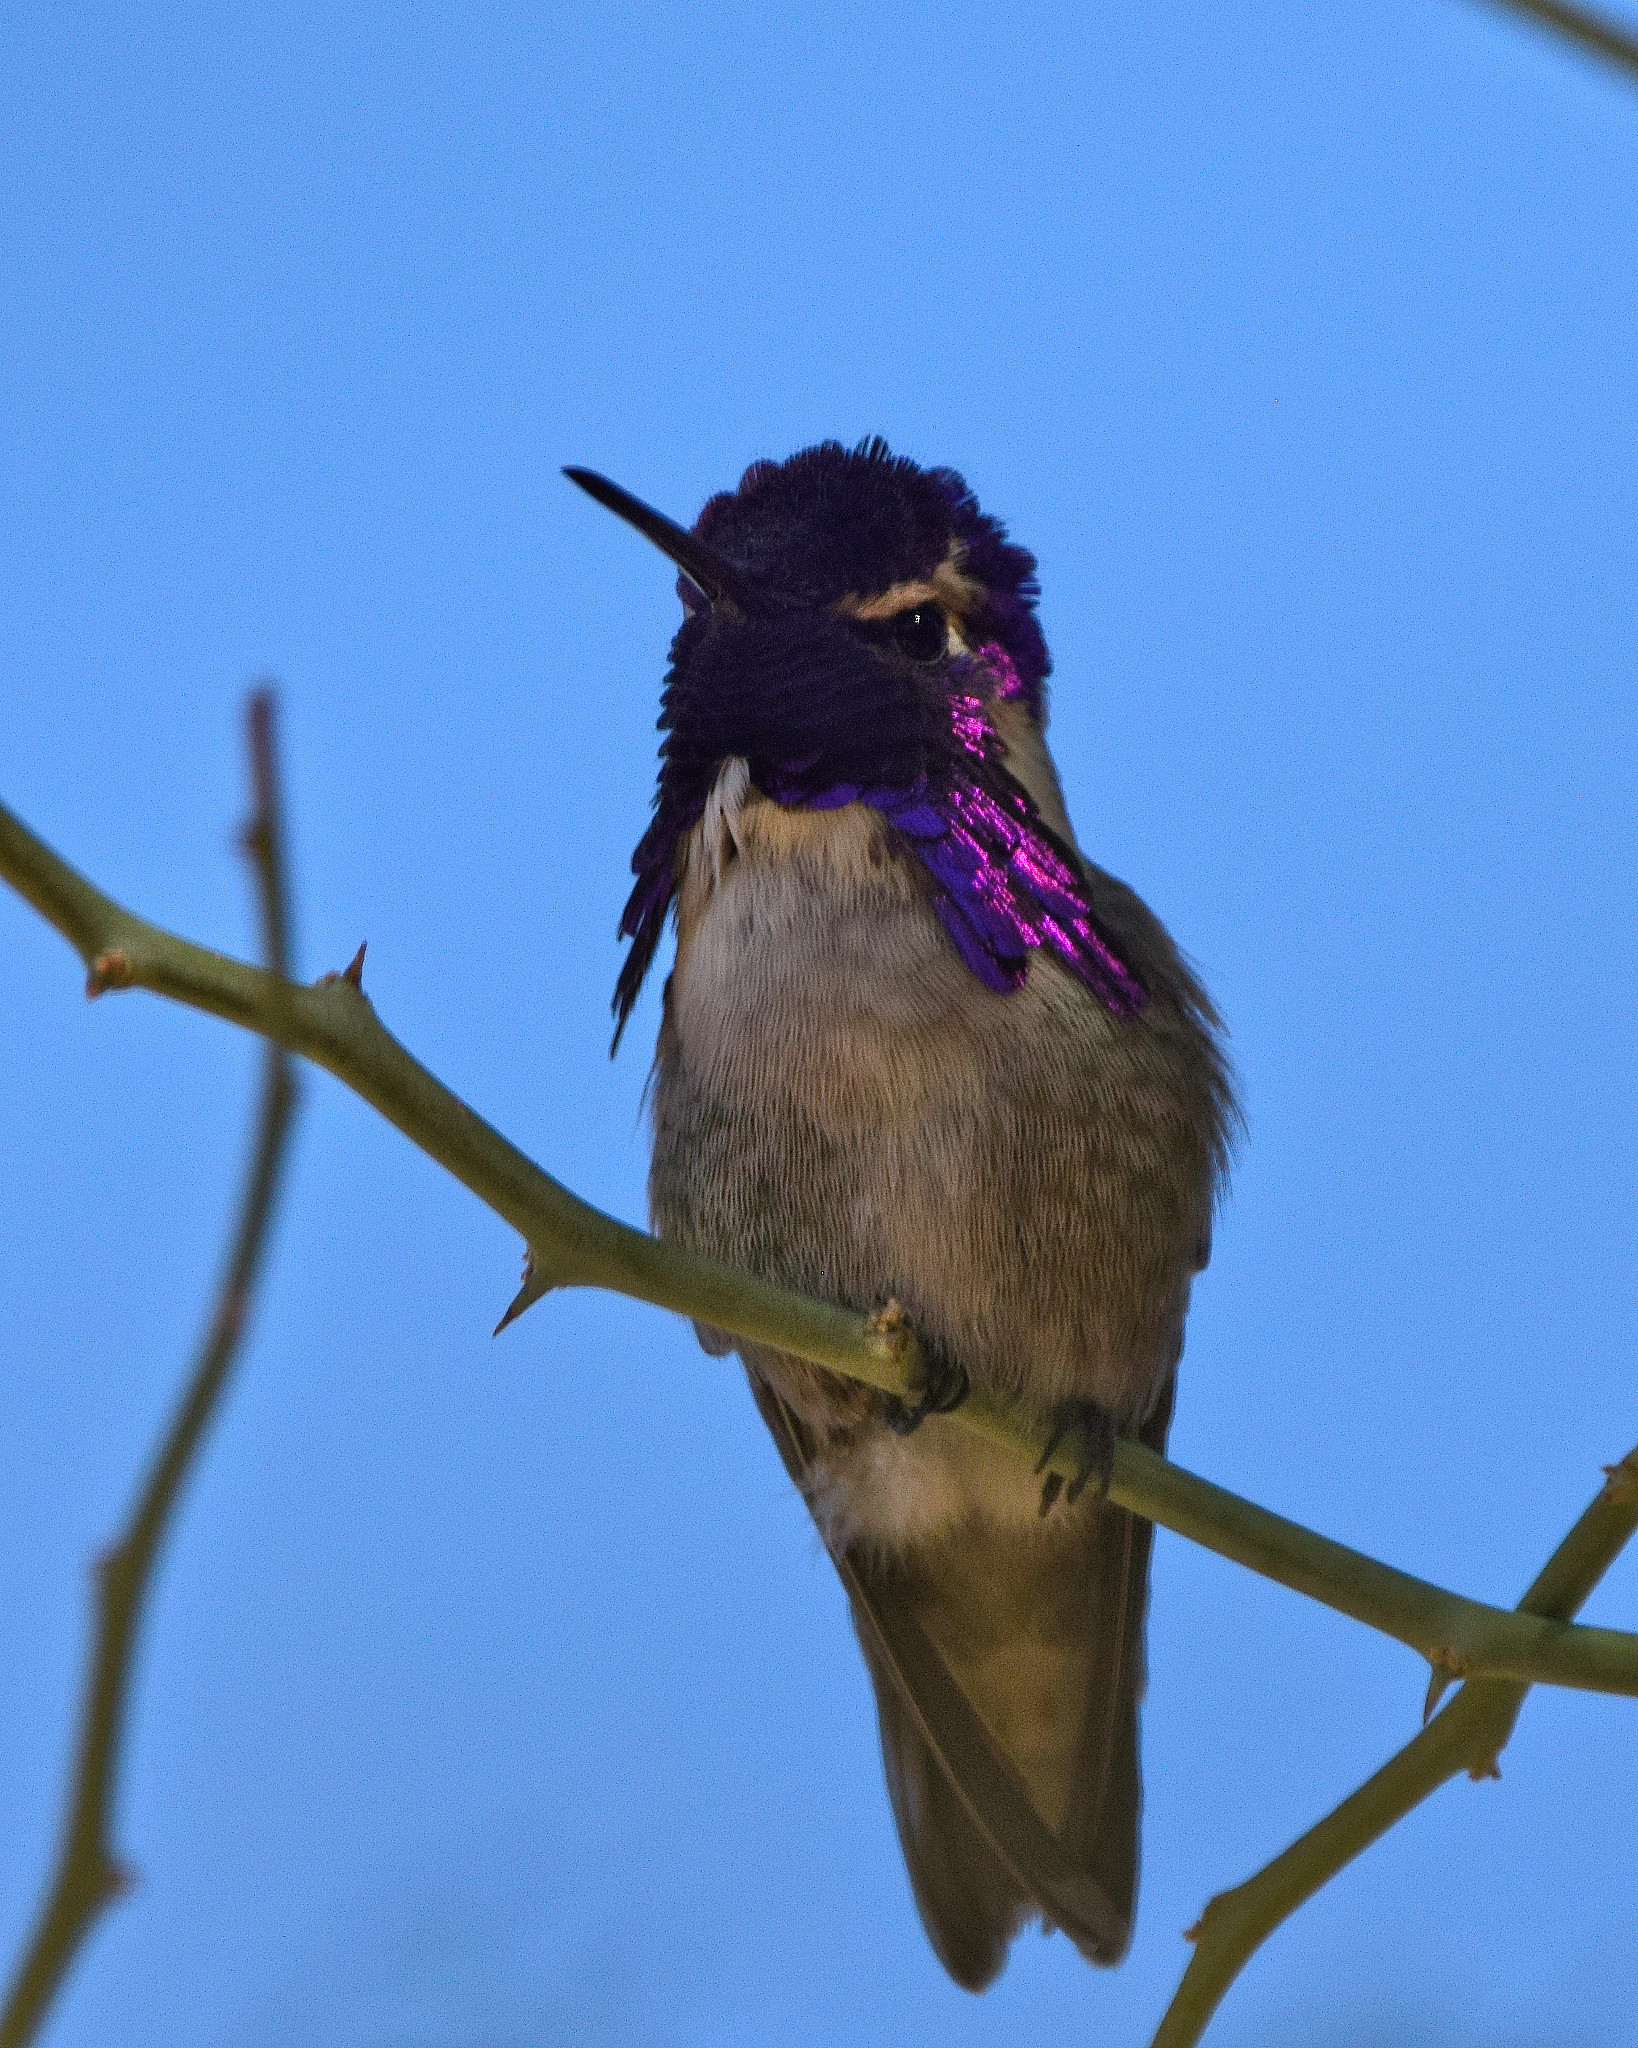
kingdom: Animalia
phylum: Chordata
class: Aves
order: Apodiformes
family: Trochilidae
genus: Calypte
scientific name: Calypte costae
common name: Costa's hummingbird
